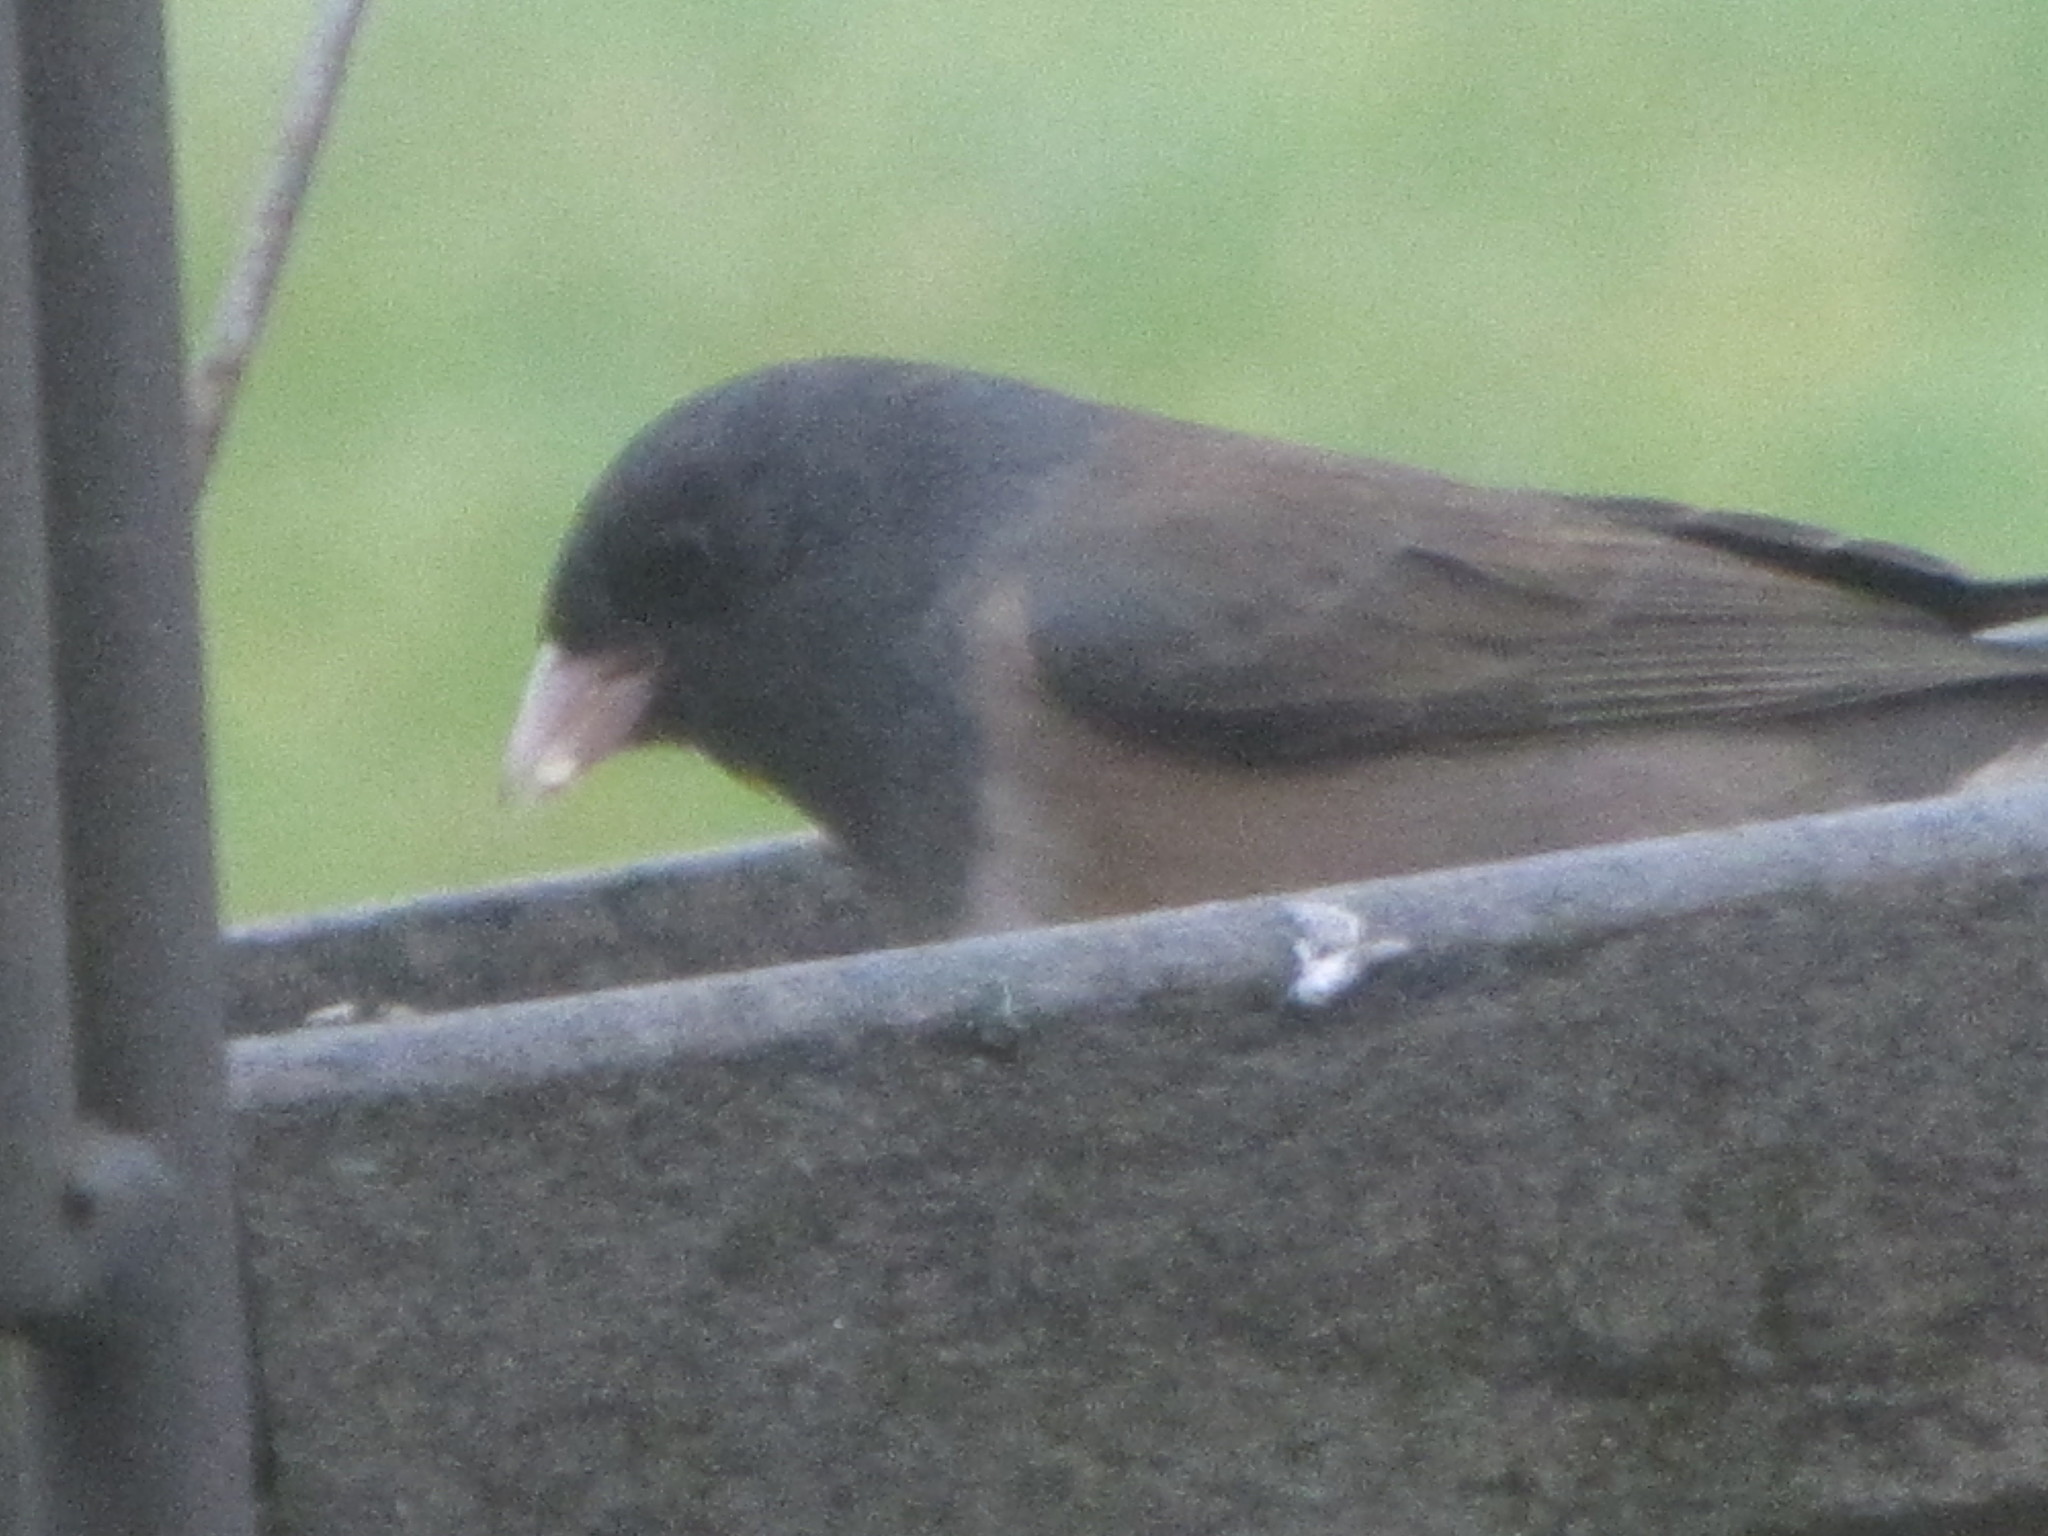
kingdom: Animalia
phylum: Chordata
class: Aves
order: Passeriformes
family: Passerellidae
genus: Junco
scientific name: Junco hyemalis
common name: Dark-eyed junco
